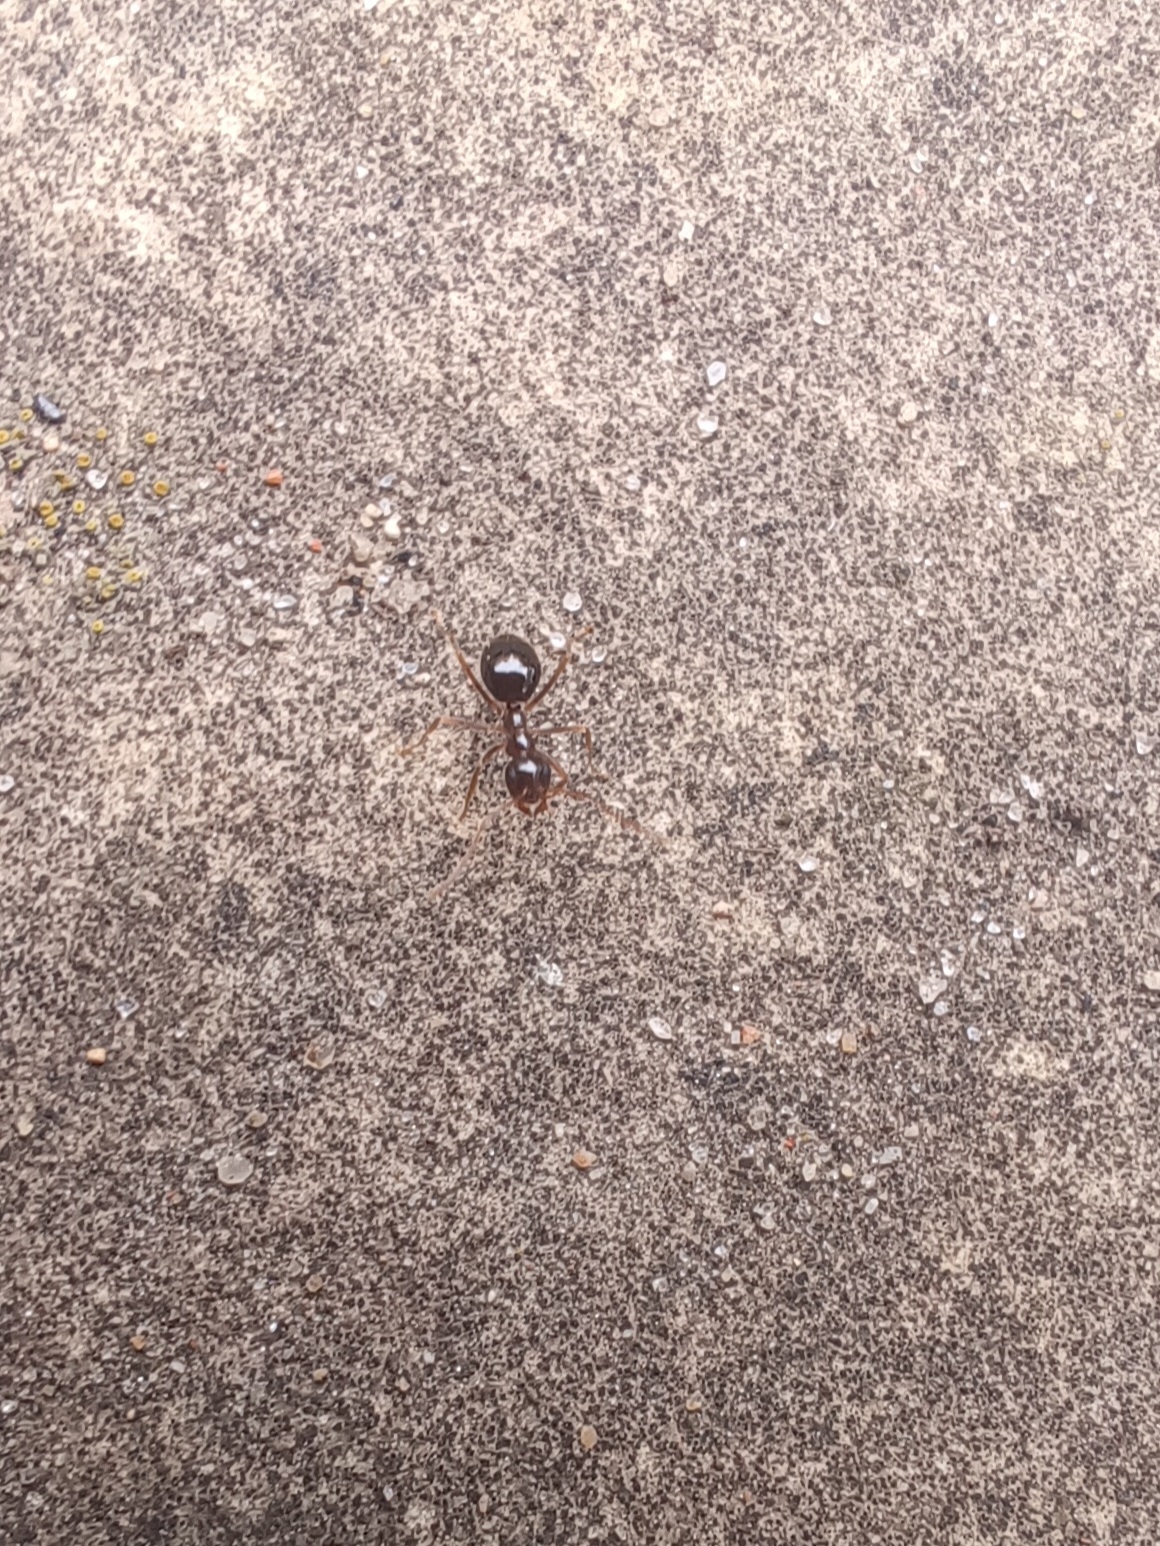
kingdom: Animalia
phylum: Arthropoda
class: Insecta
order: Hymenoptera
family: Formicidae
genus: Prenolepis
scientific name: Prenolepis imparis
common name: Small honey ant
